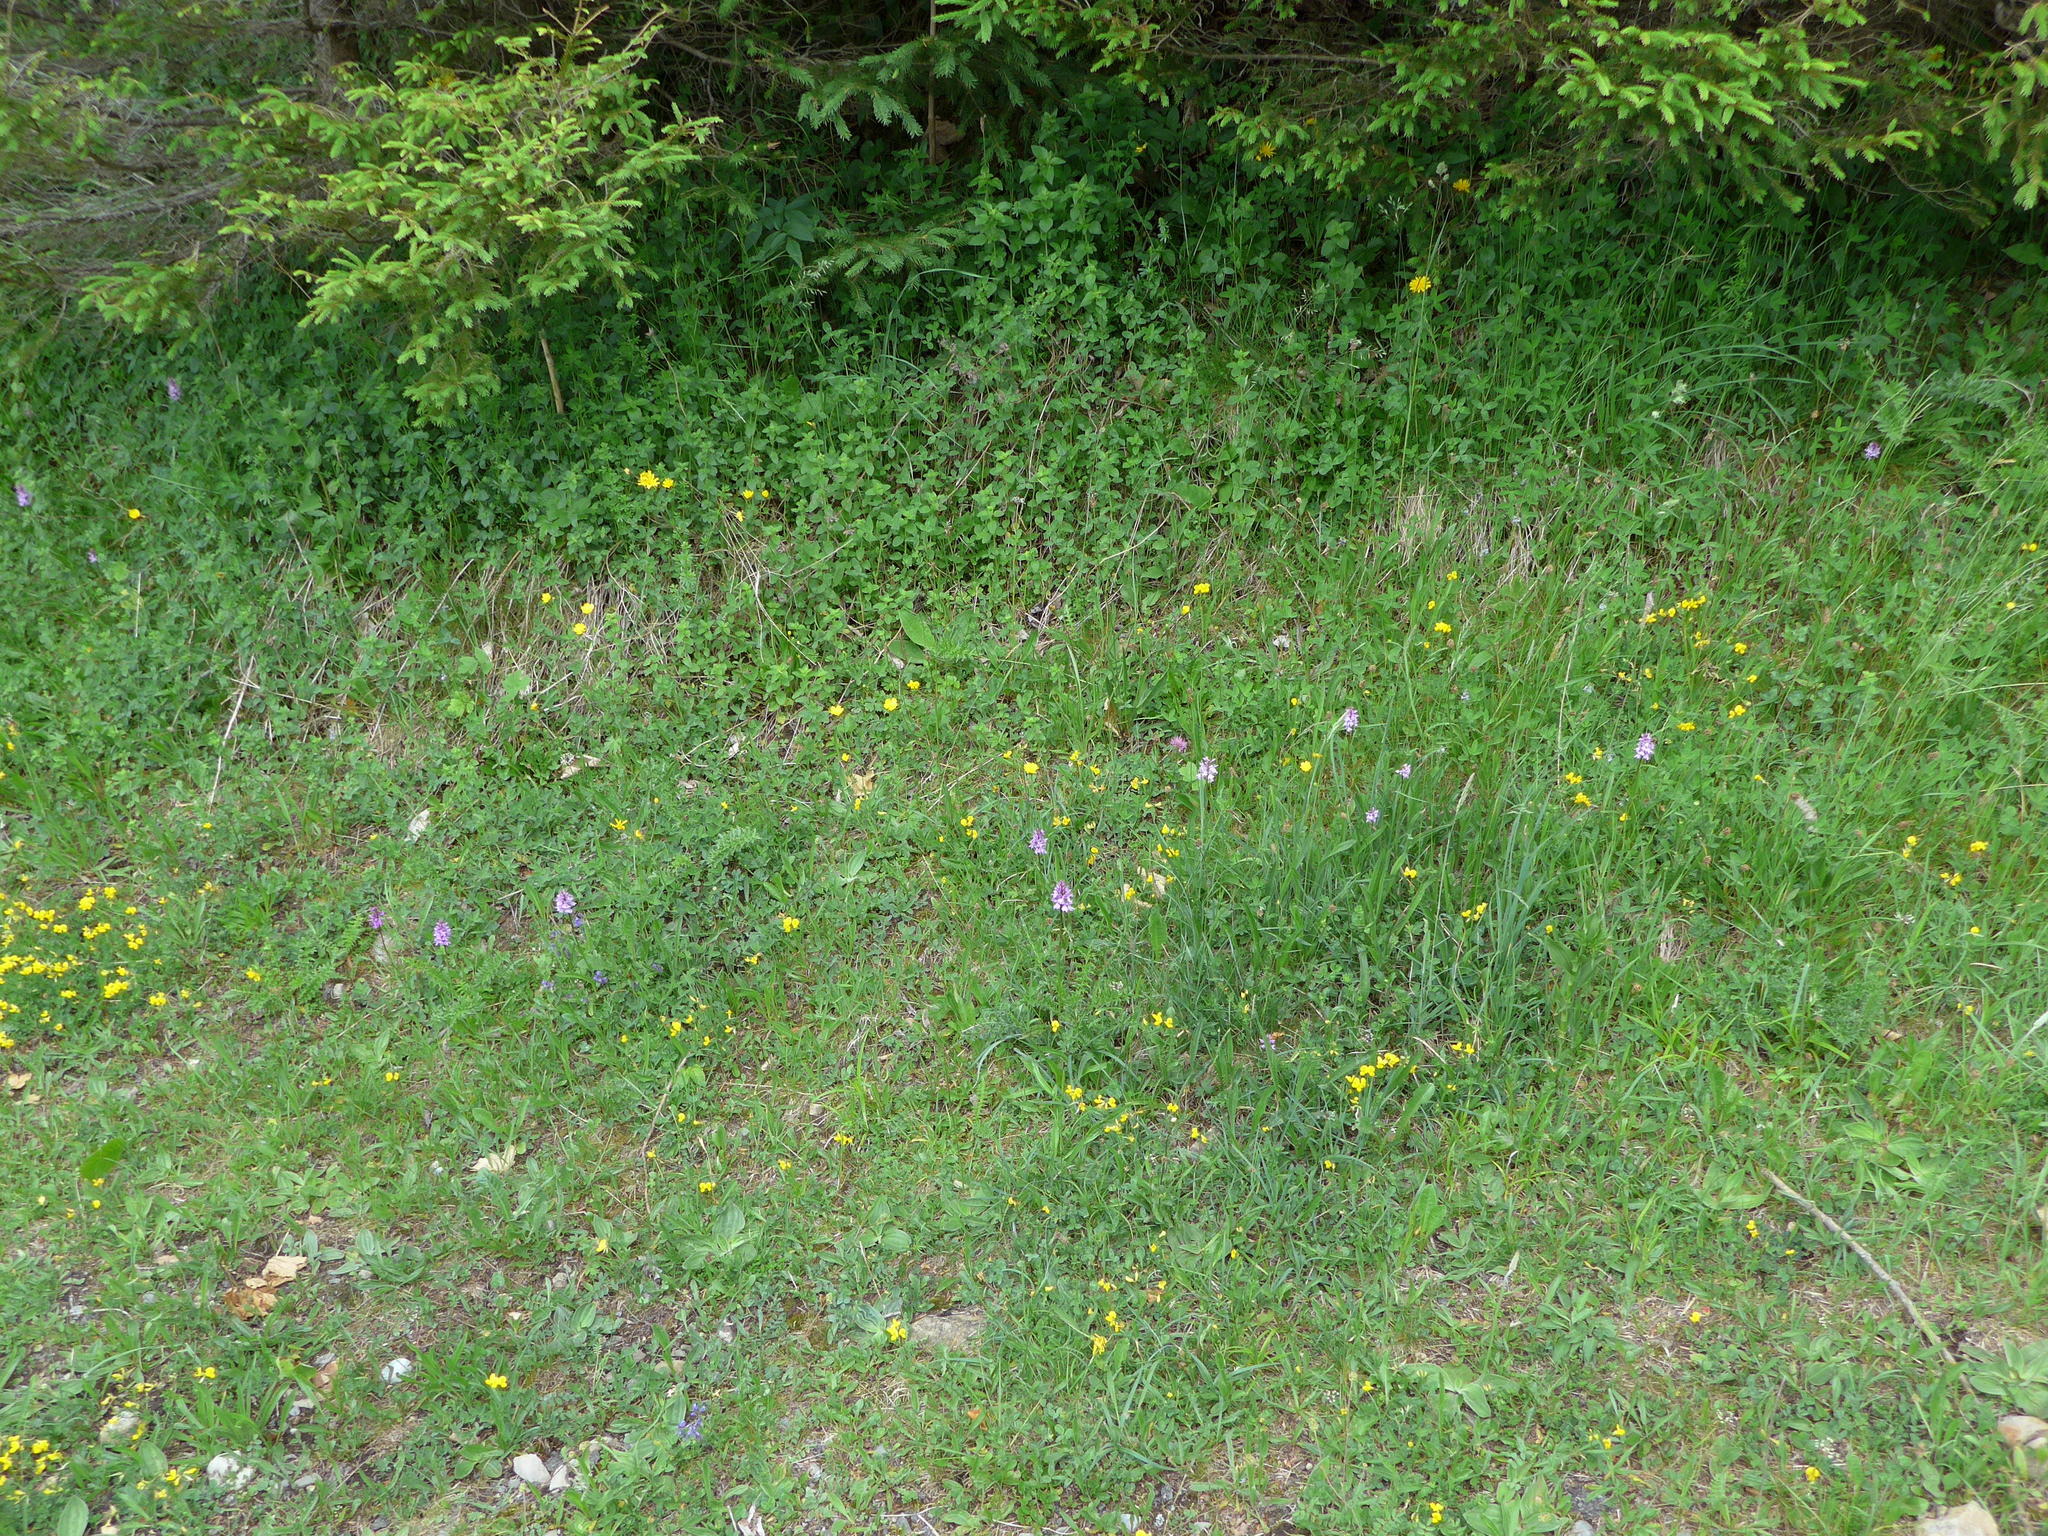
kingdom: Plantae
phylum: Tracheophyta
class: Liliopsida
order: Asparagales
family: Orchidaceae
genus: Dactylorhiza
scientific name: Dactylorhiza maculata
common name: Heath spotted-orchid
